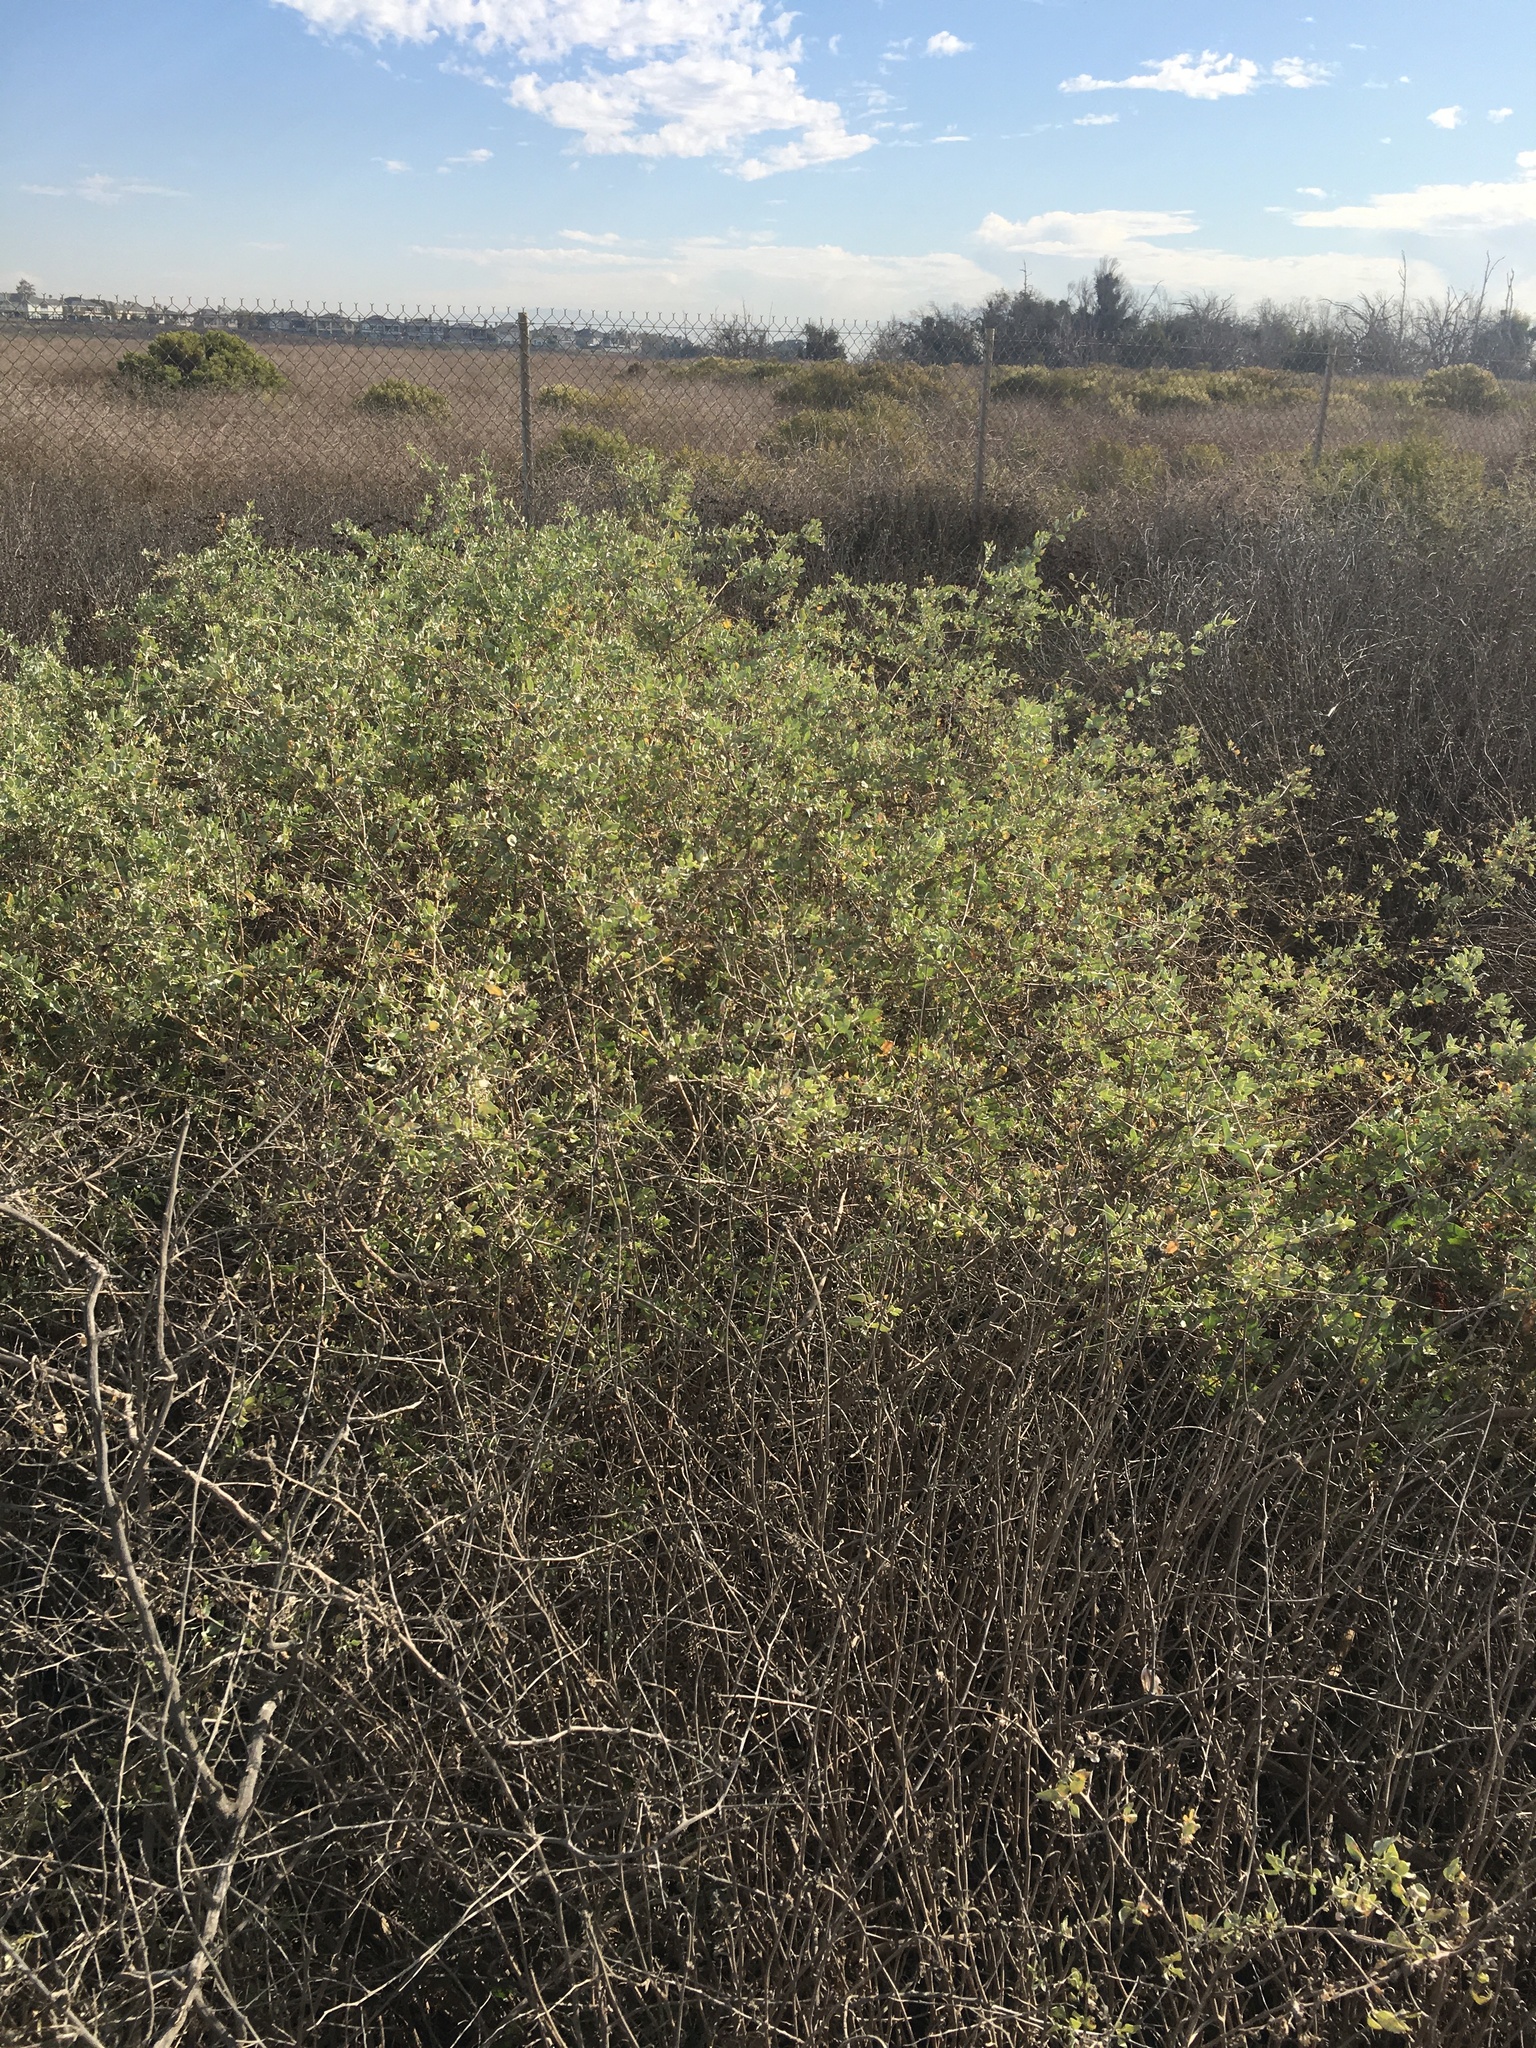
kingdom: Plantae
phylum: Tracheophyta
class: Magnoliopsida
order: Caryophyllales
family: Amaranthaceae
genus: Atriplex
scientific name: Atriplex lentiformis
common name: Big saltbush
